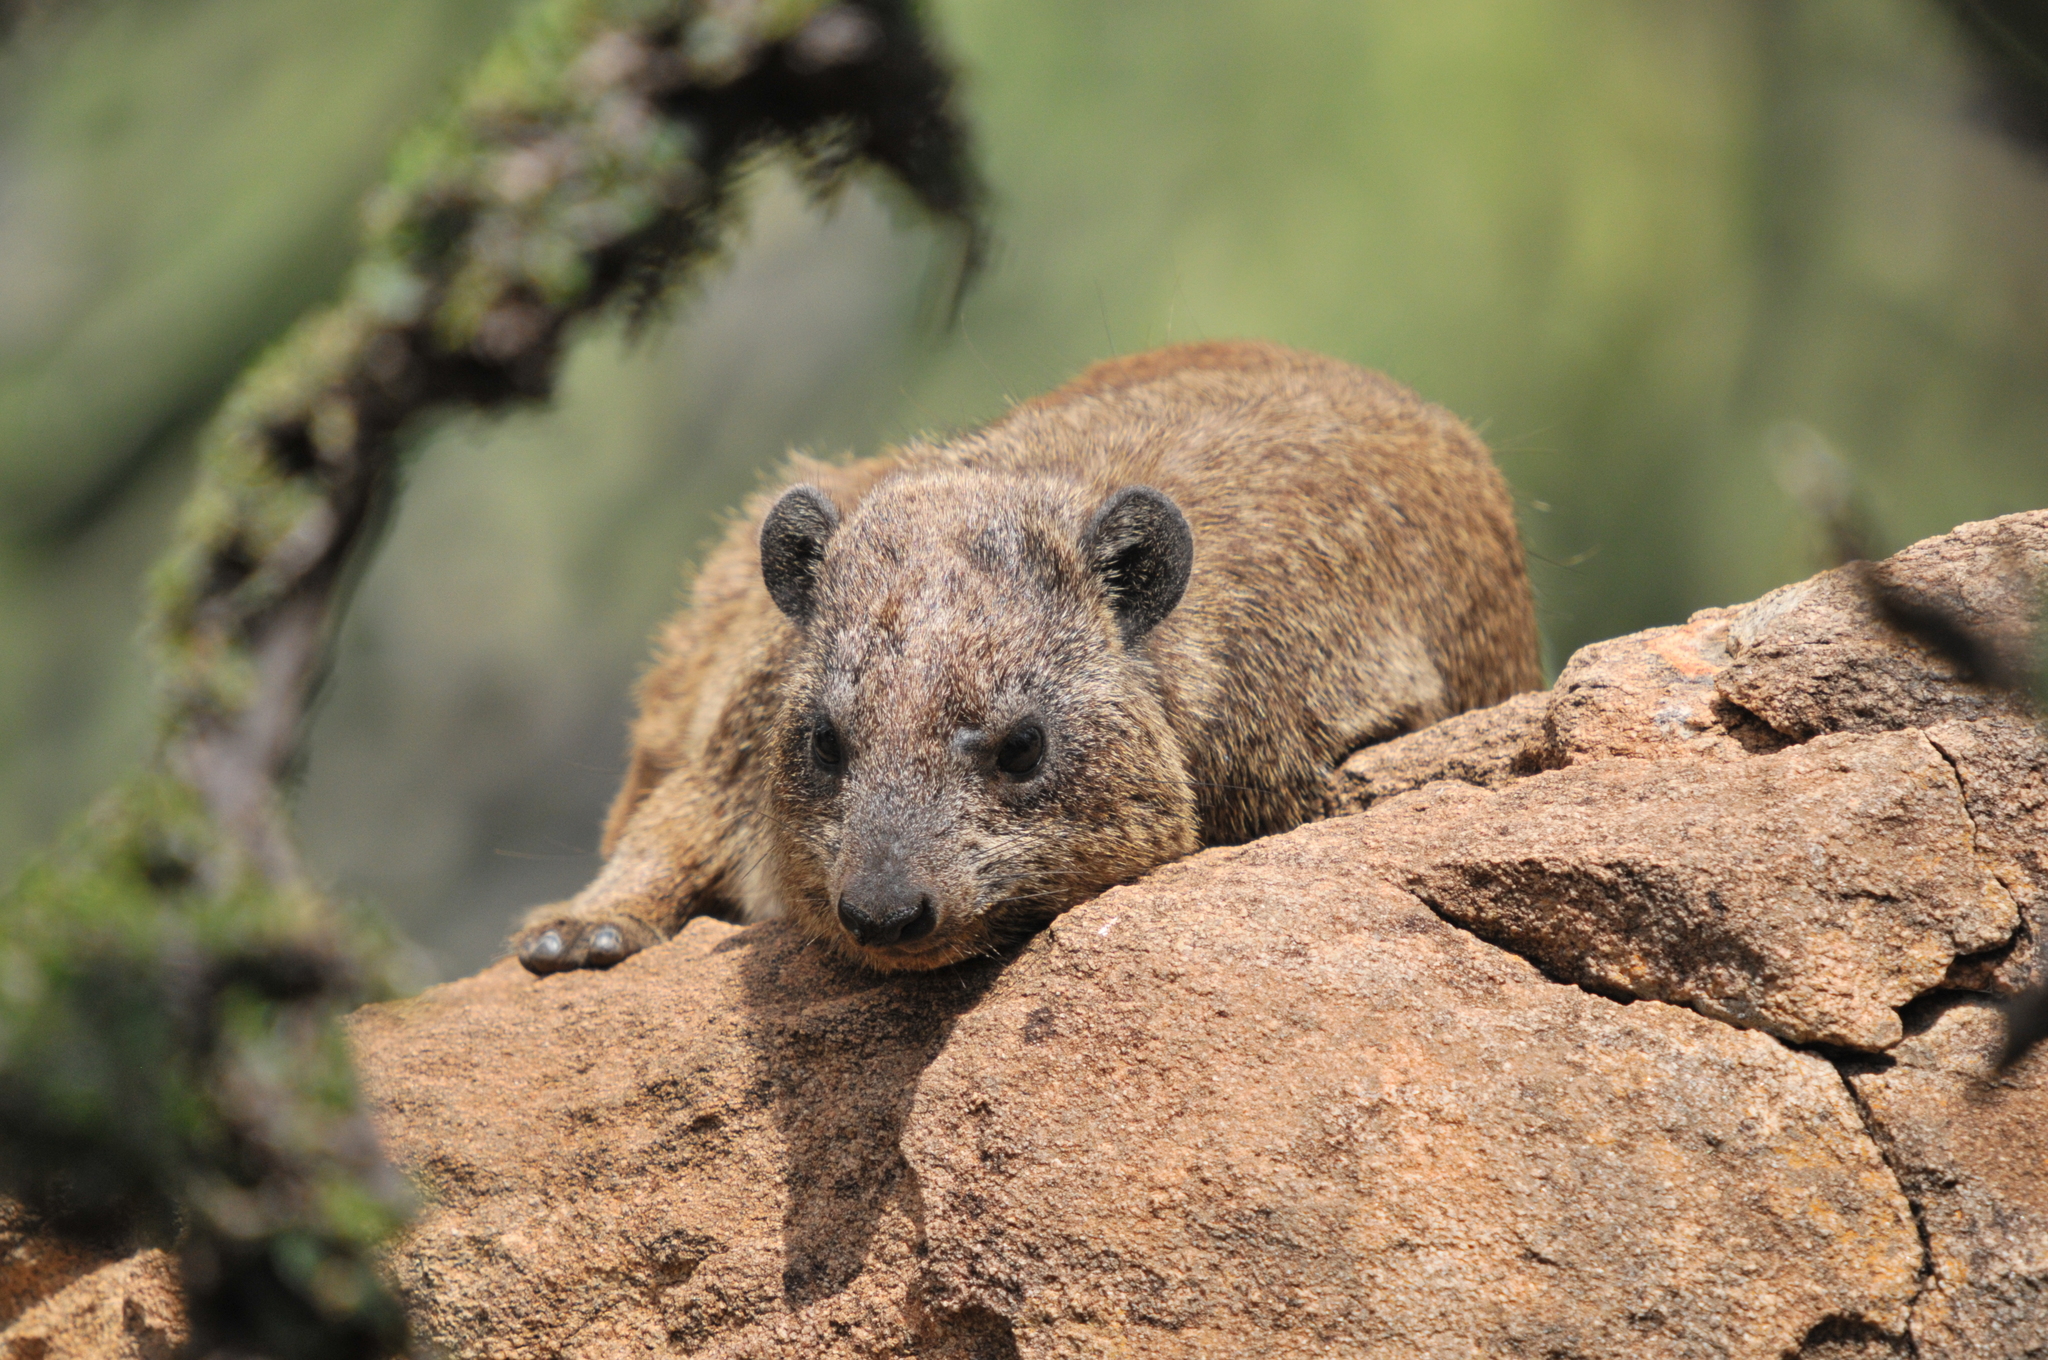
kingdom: Animalia
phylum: Chordata
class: Mammalia
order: Hyracoidea
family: Procaviidae
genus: Procavia
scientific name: Procavia capensis
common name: Rock hyrax
